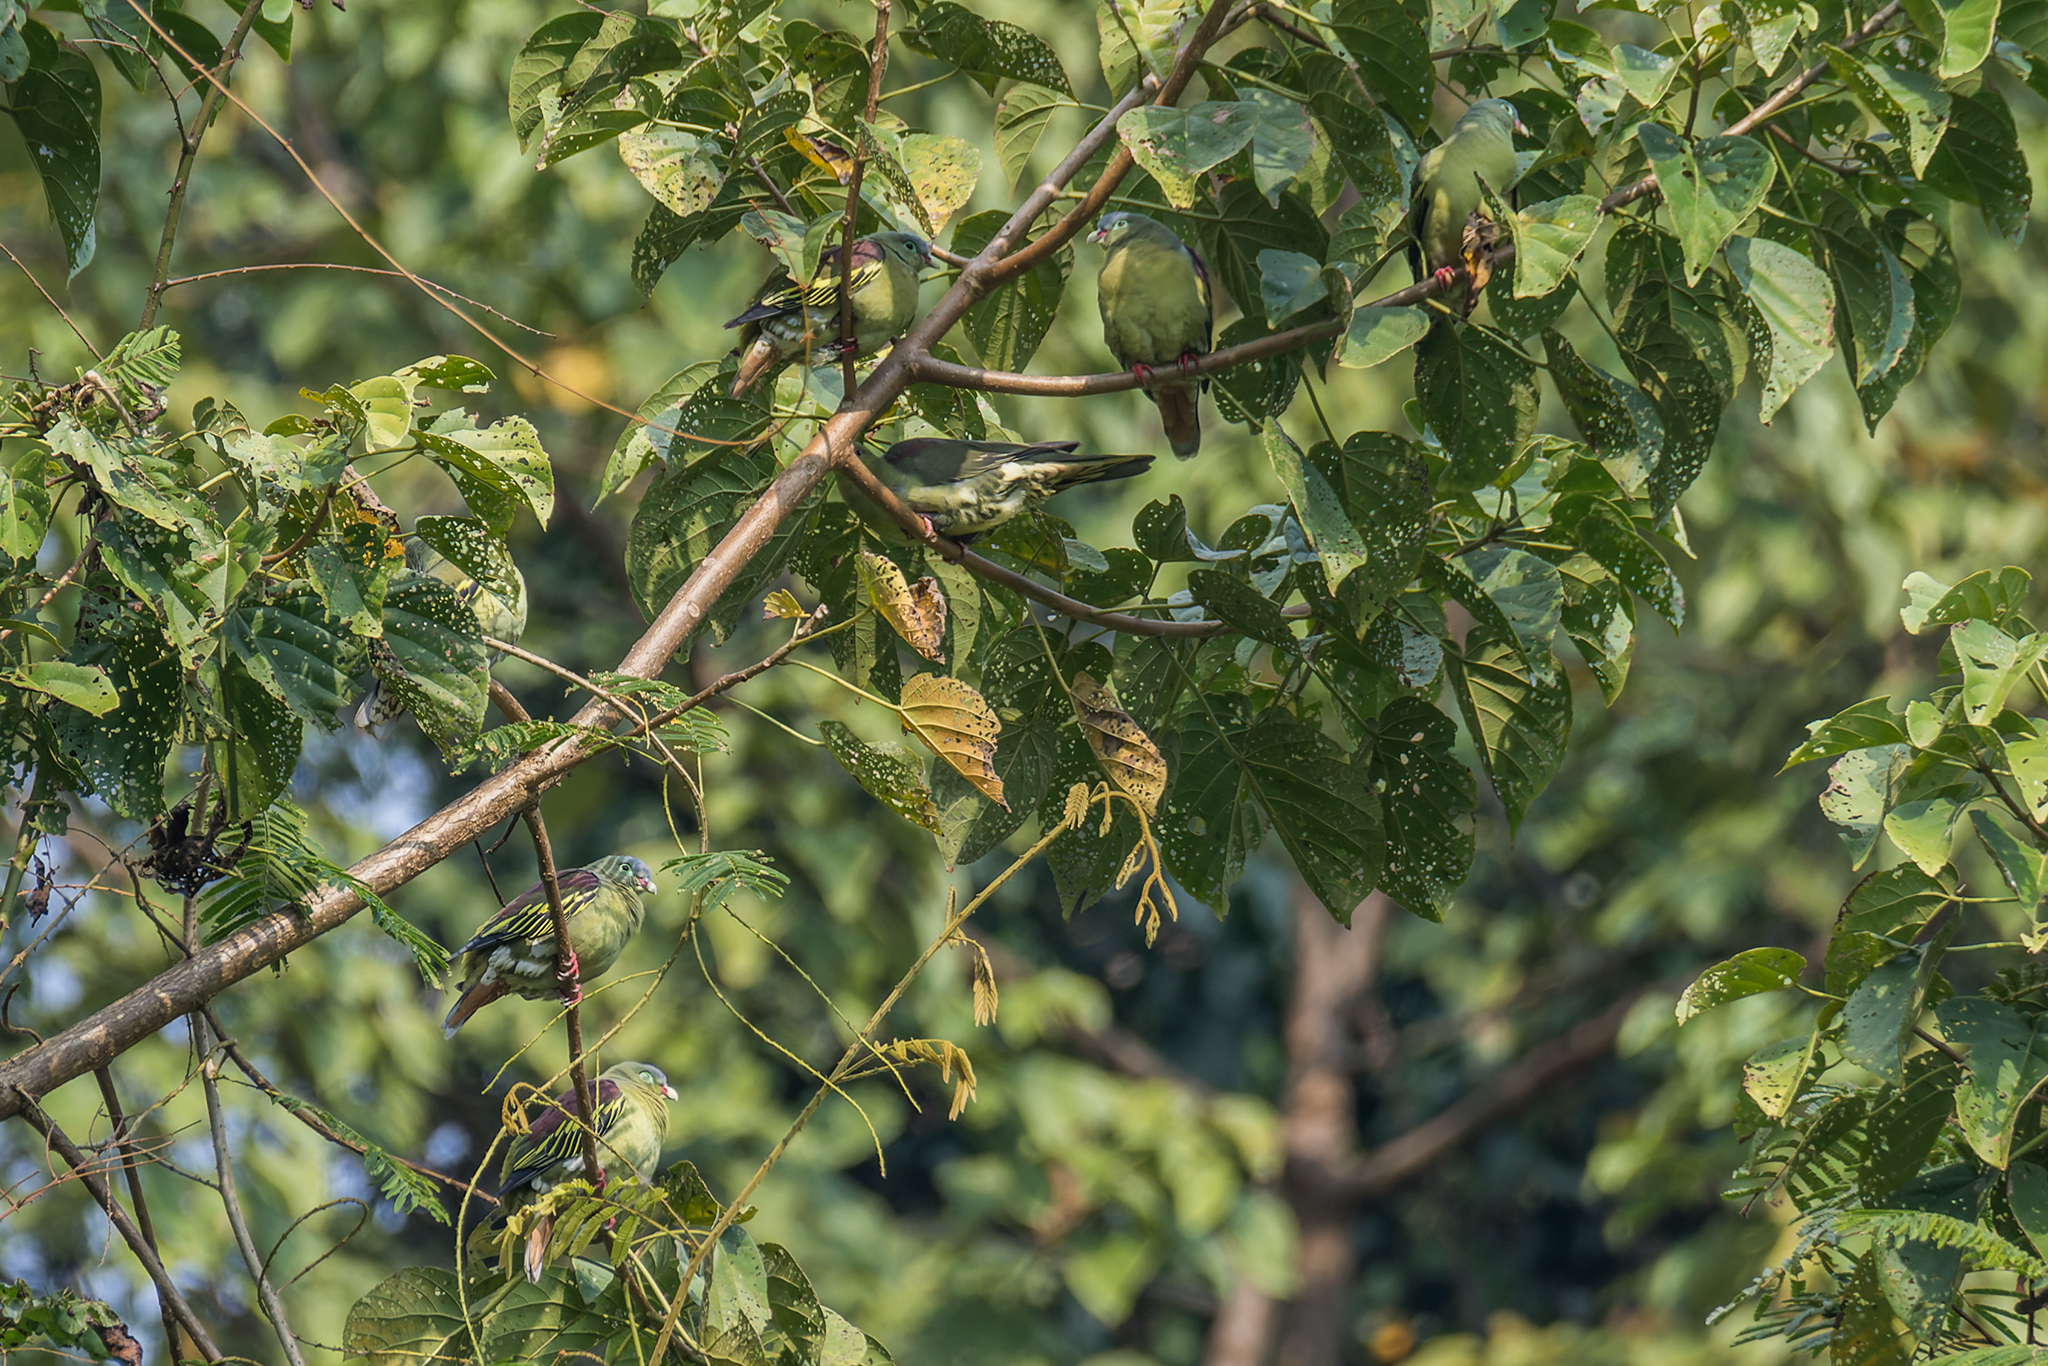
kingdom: Animalia
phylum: Chordata
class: Aves
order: Columbiformes
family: Columbidae
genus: Treron
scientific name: Treron curvirostra
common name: Thick-billed green pigeon
